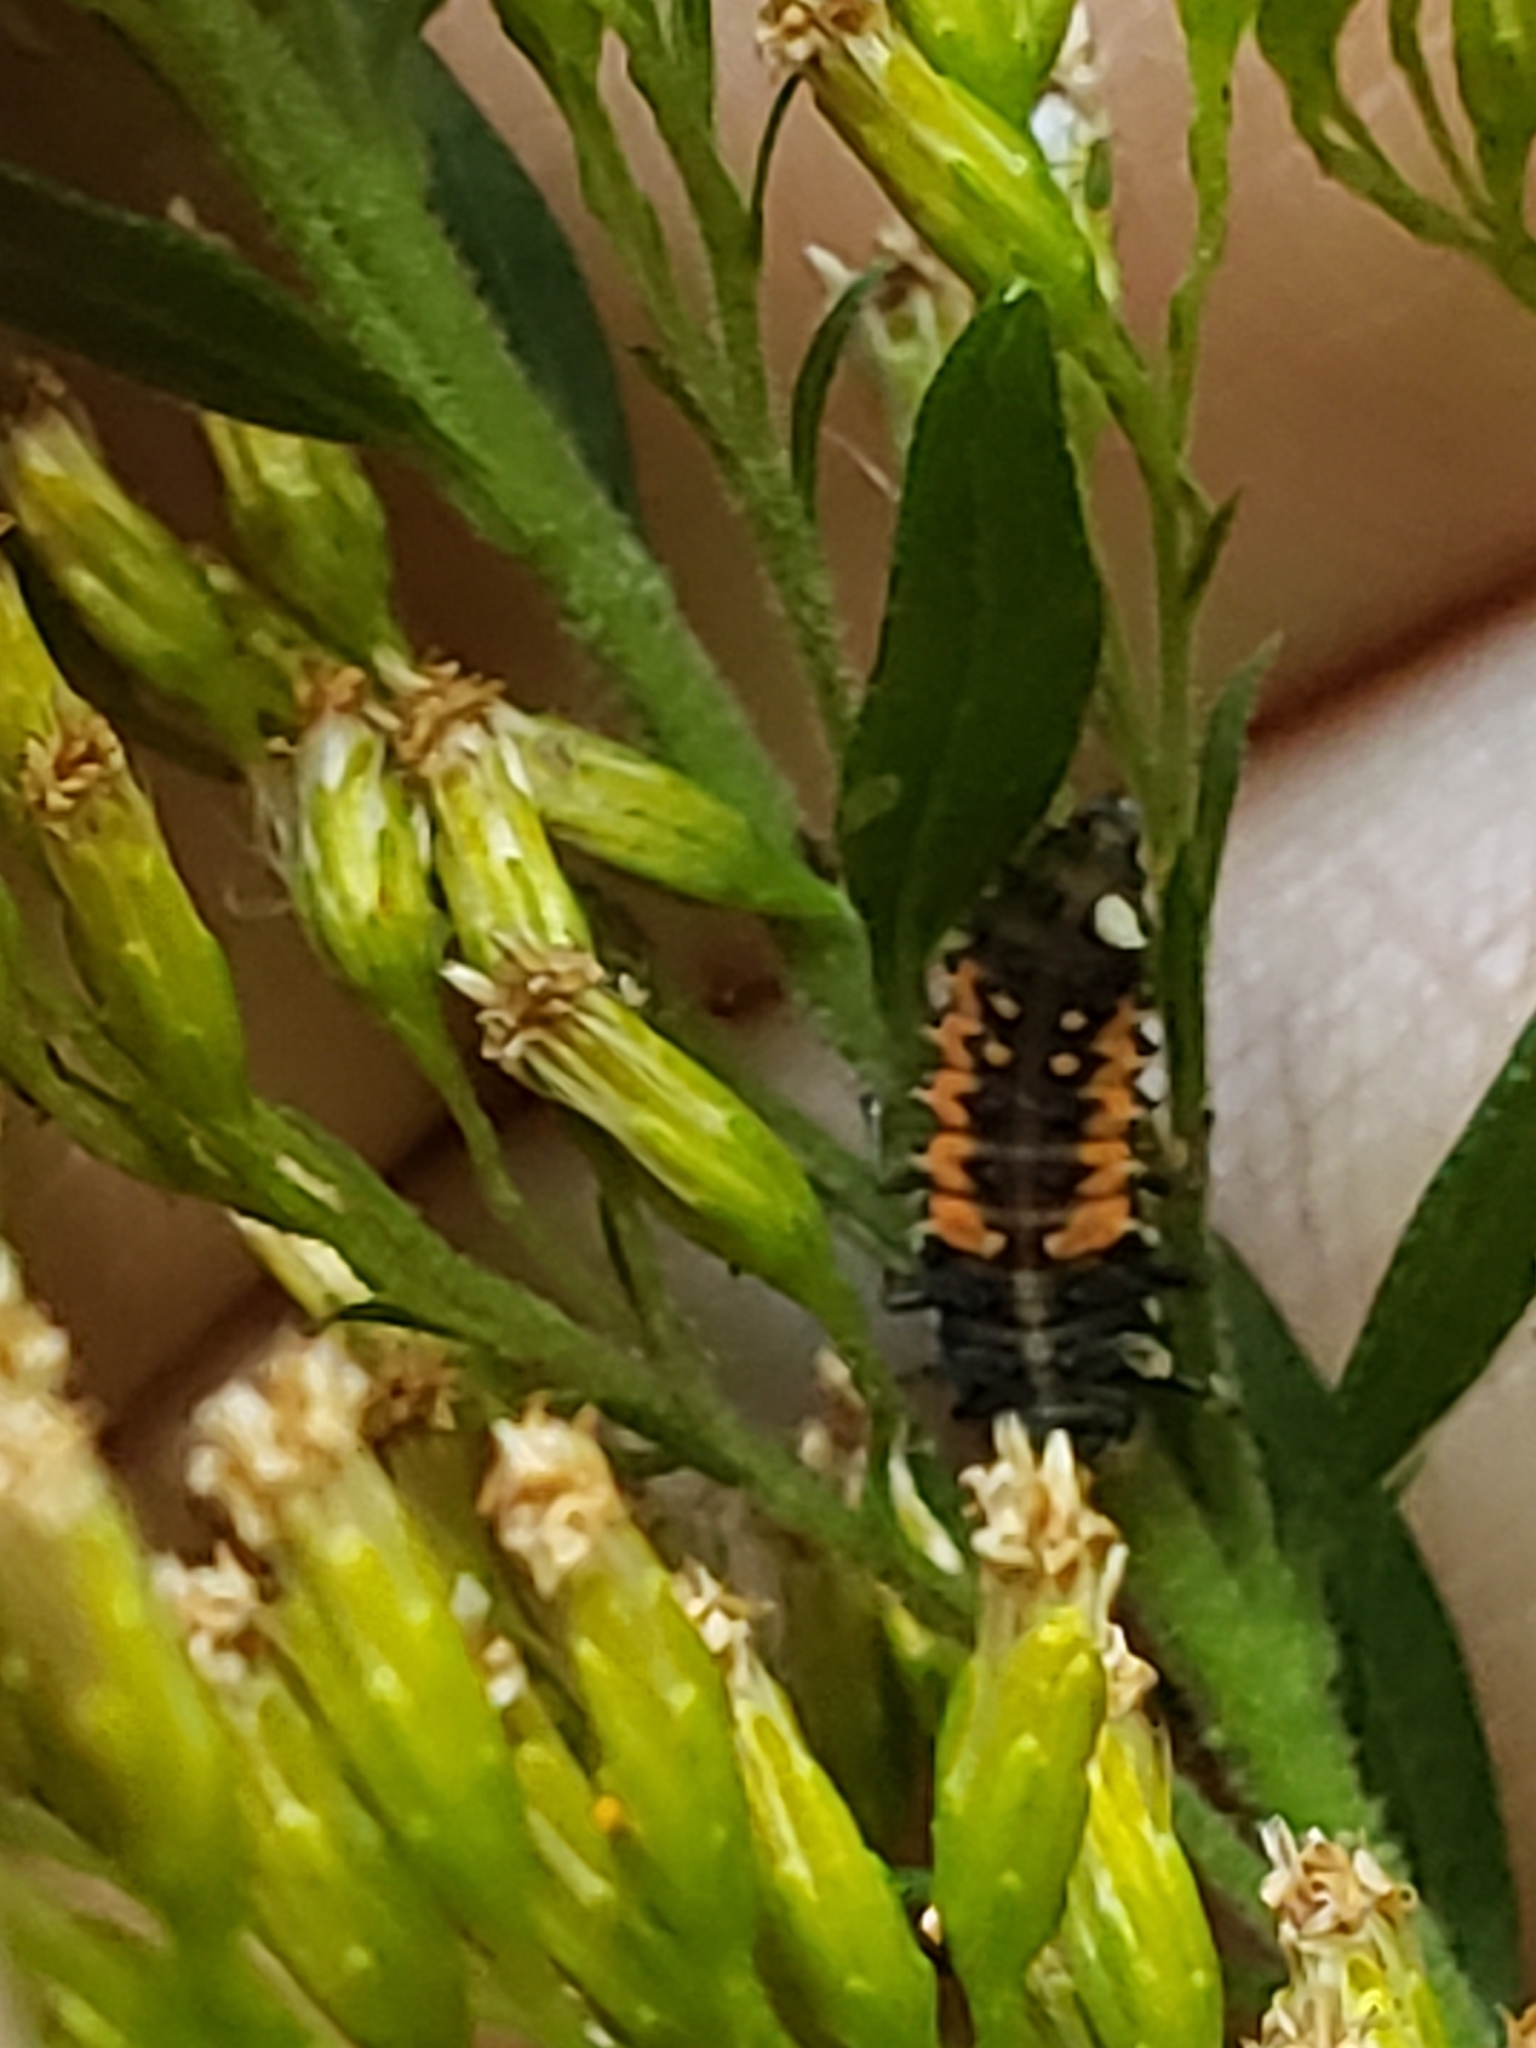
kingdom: Animalia
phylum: Arthropoda
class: Insecta
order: Coleoptera
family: Coccinellidae
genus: Harmonia
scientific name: Harmonia axyridis
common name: Harlequin ladybird
